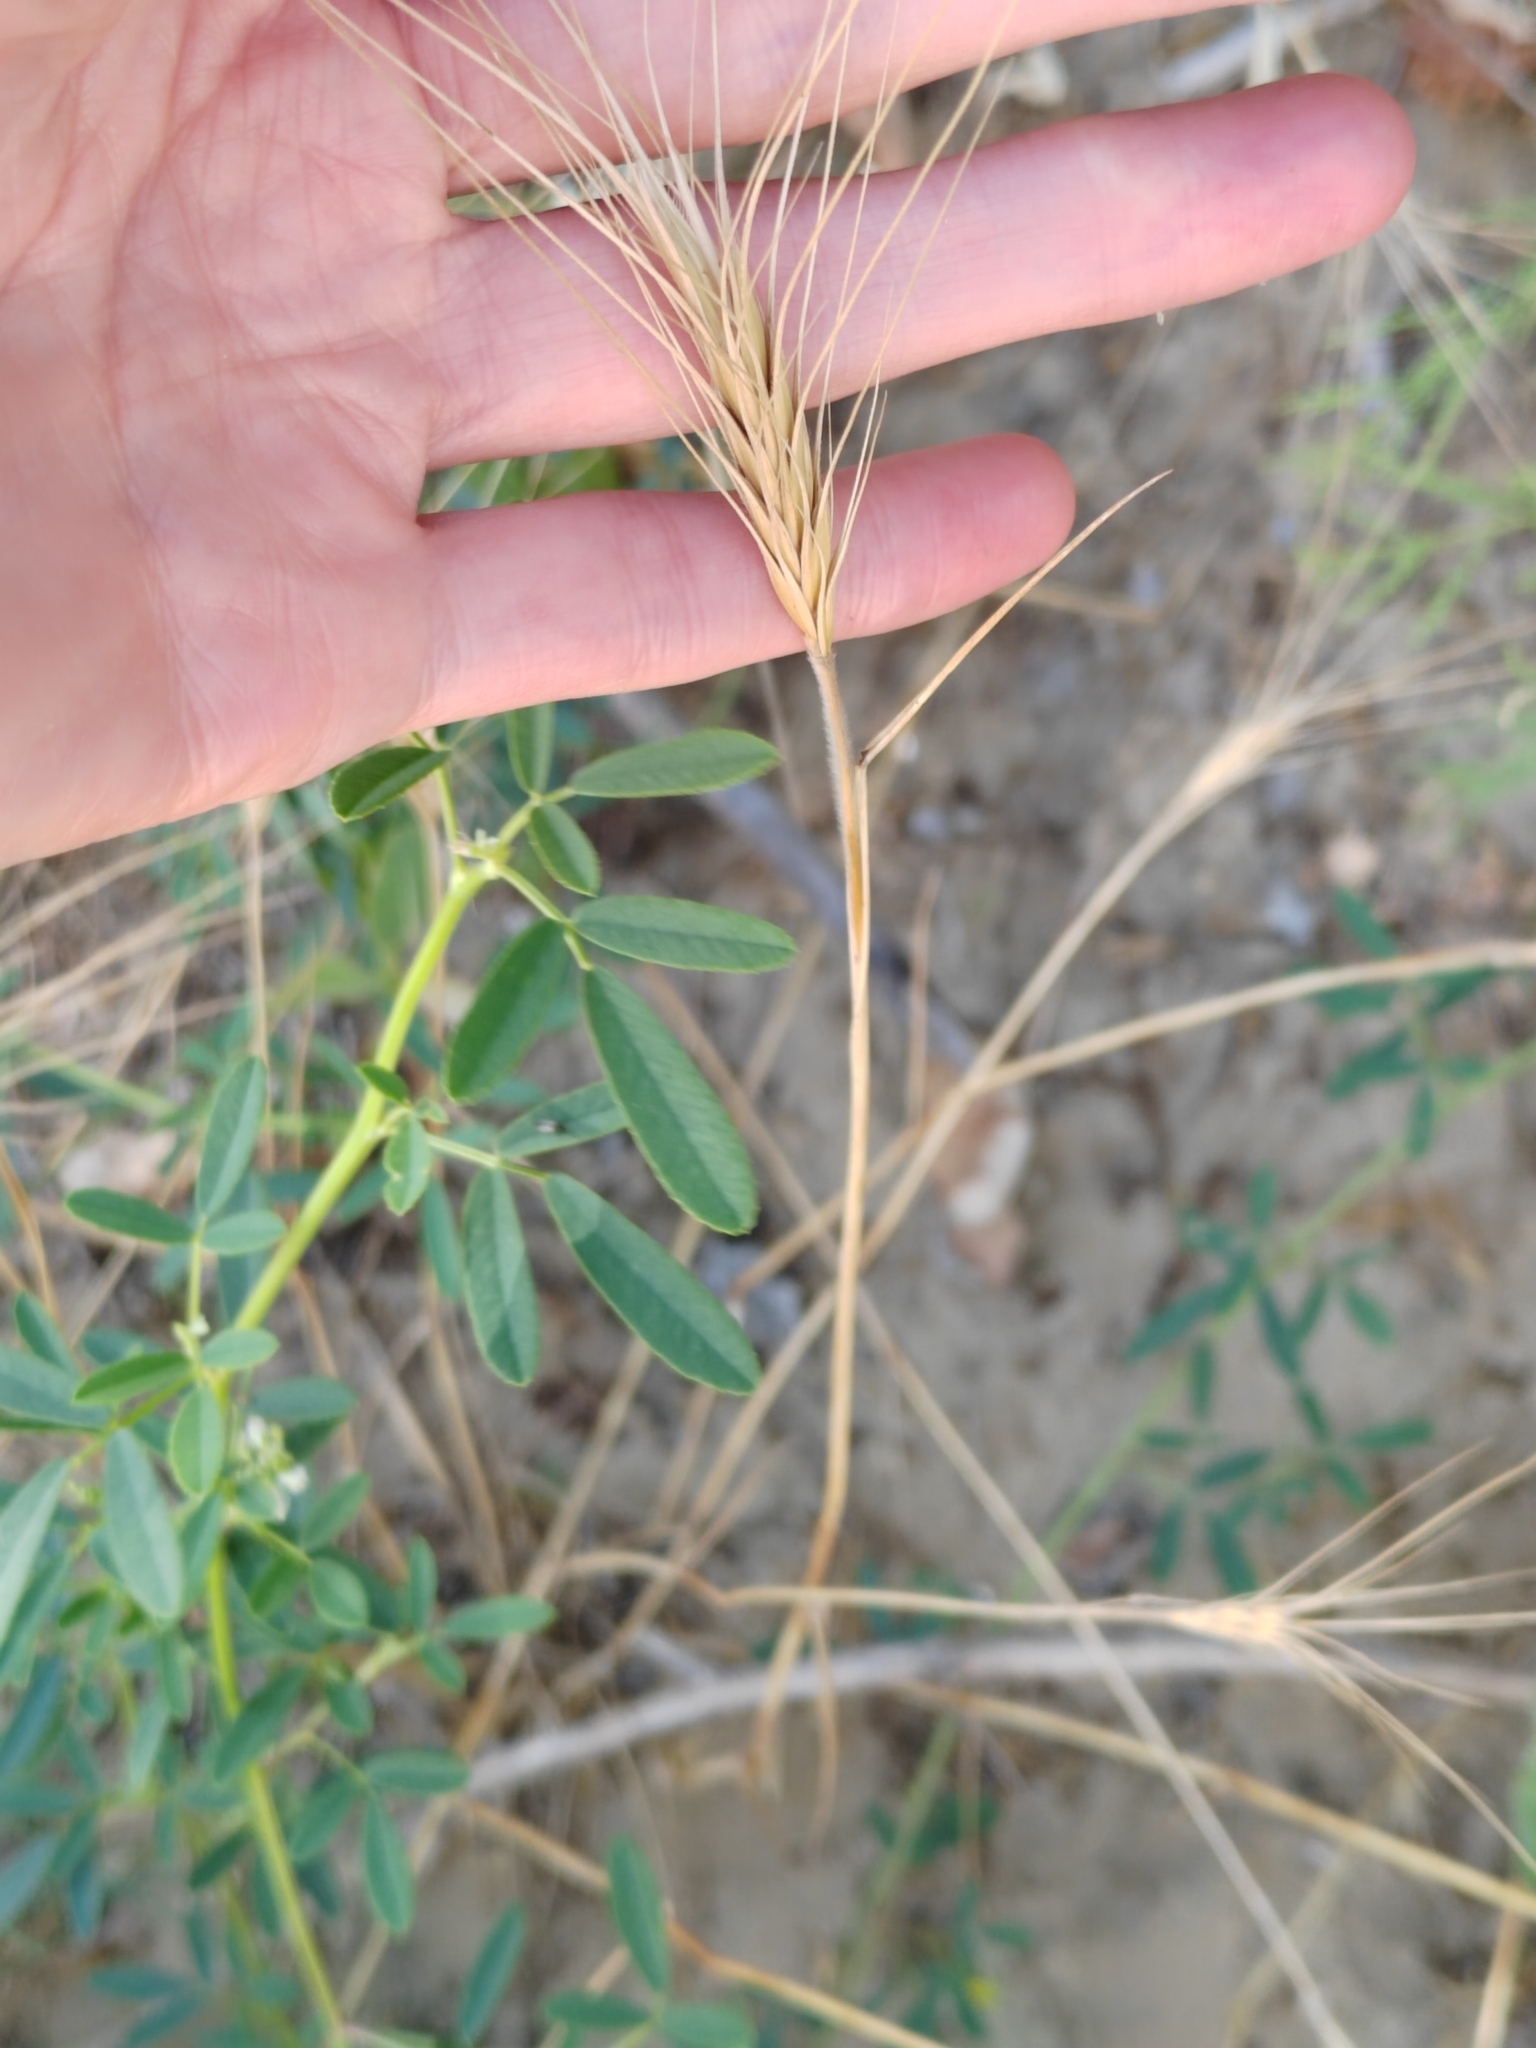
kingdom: Plantae
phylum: Tracheophyta
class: Liliopsida
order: Poales
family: Poaceae
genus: Secale
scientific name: Secale sylvestre
